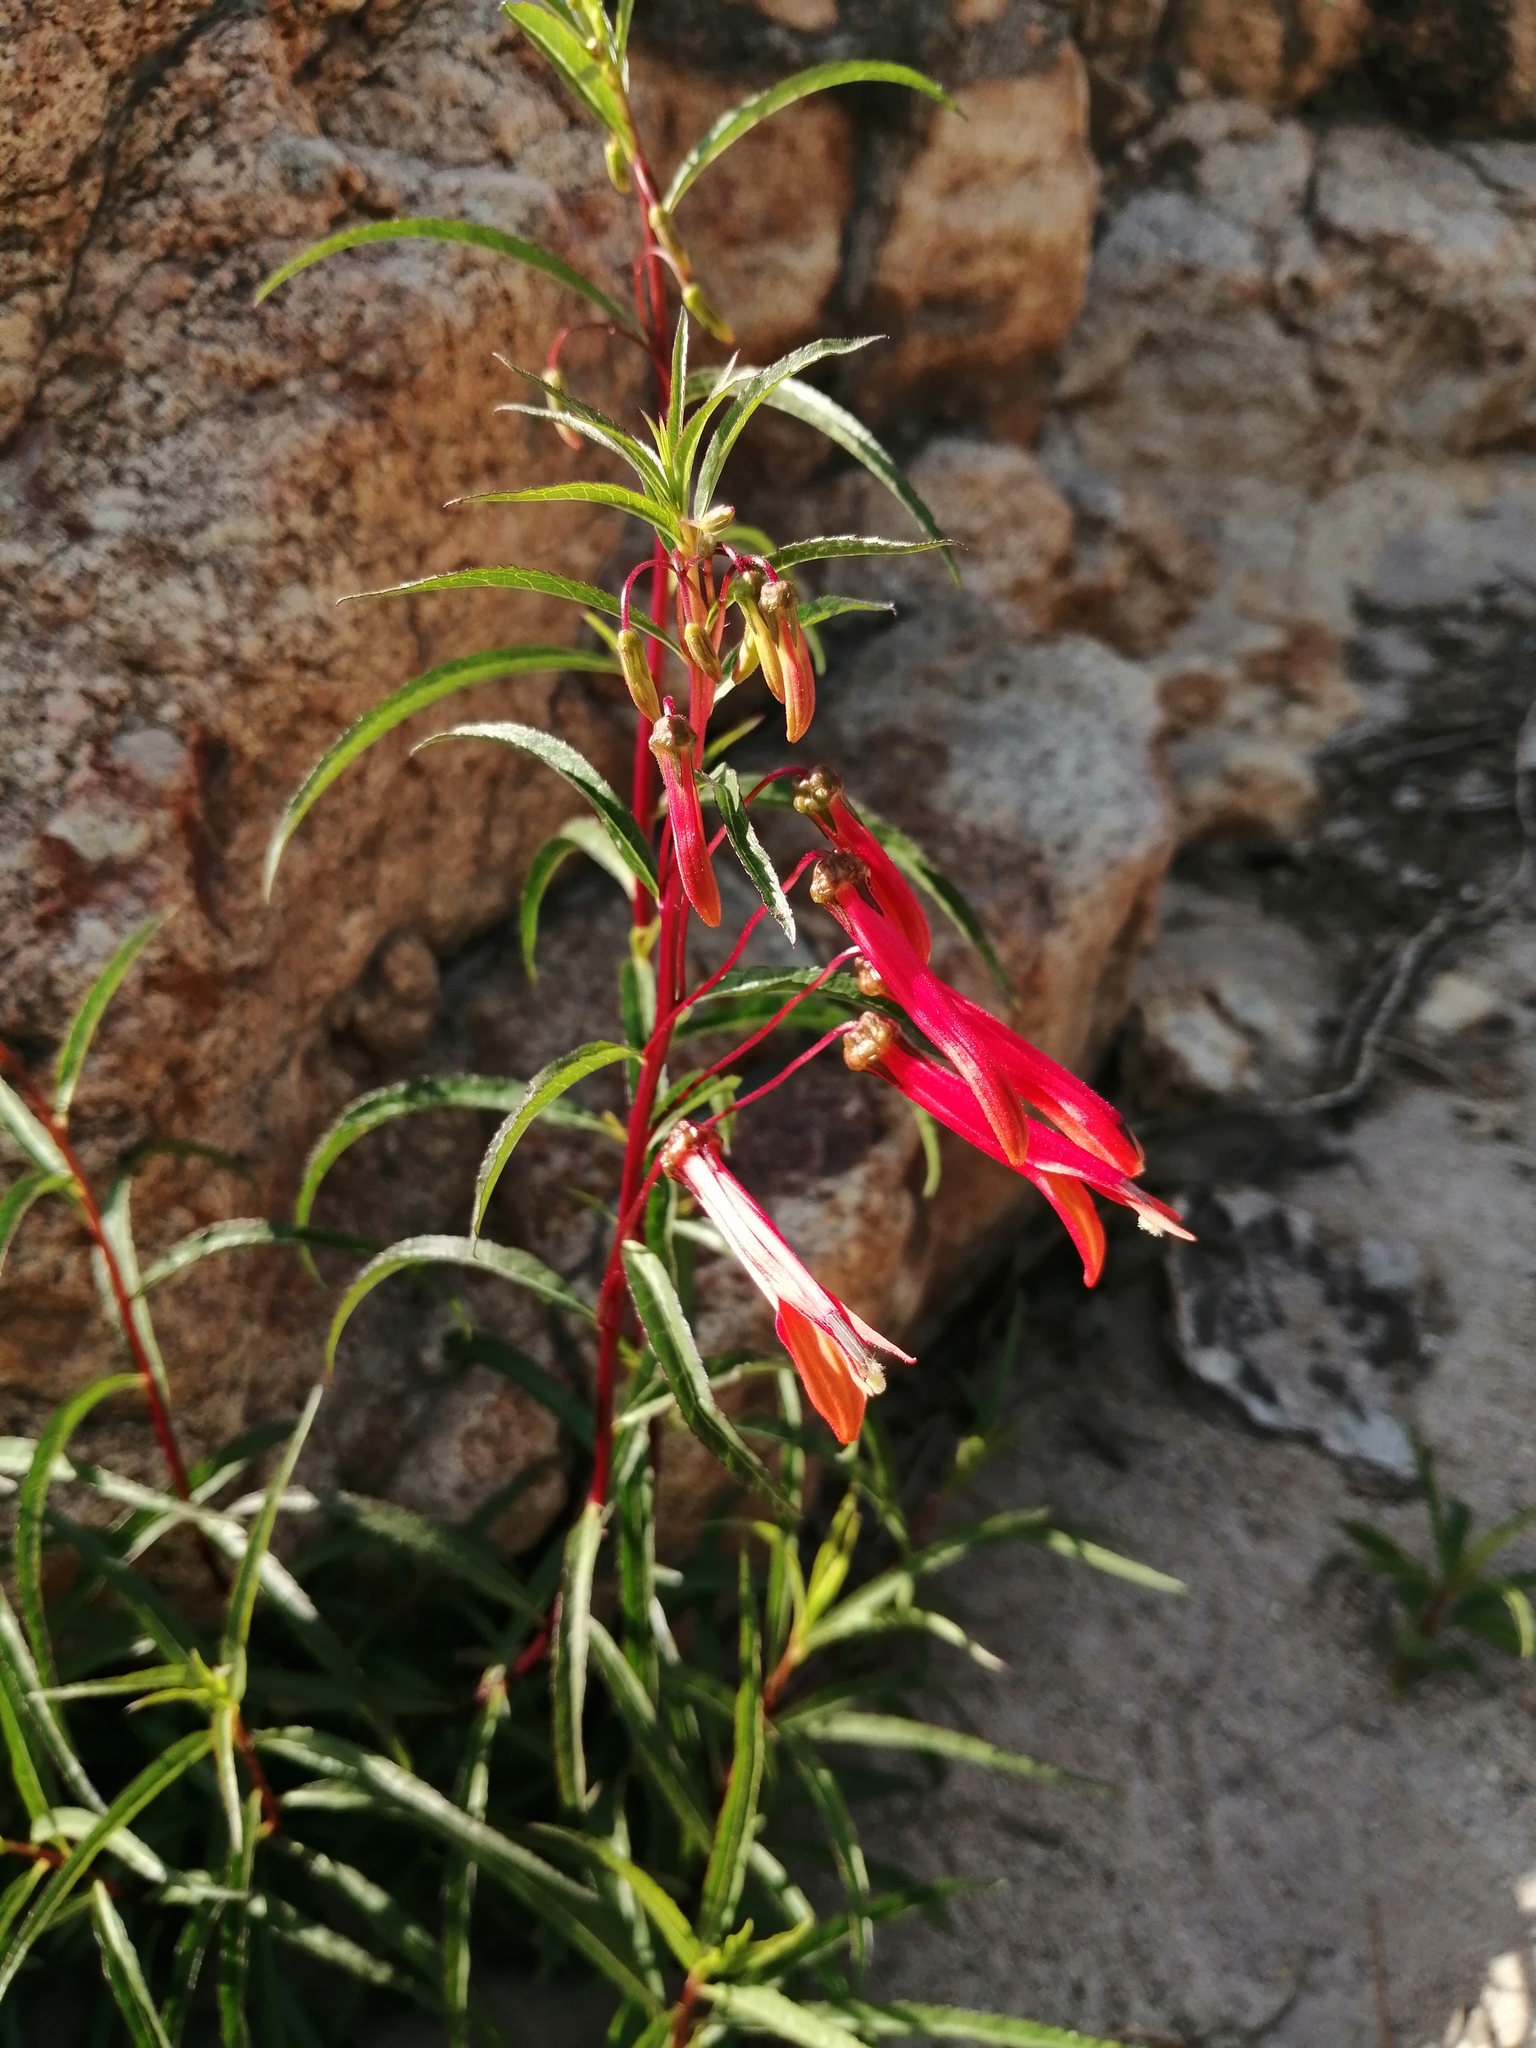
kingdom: Plantae
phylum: Tracheophyta
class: Magnoliopsida
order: Asterales
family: Campanulaceae
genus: Lobelia
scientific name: Lobelia laxiflora
